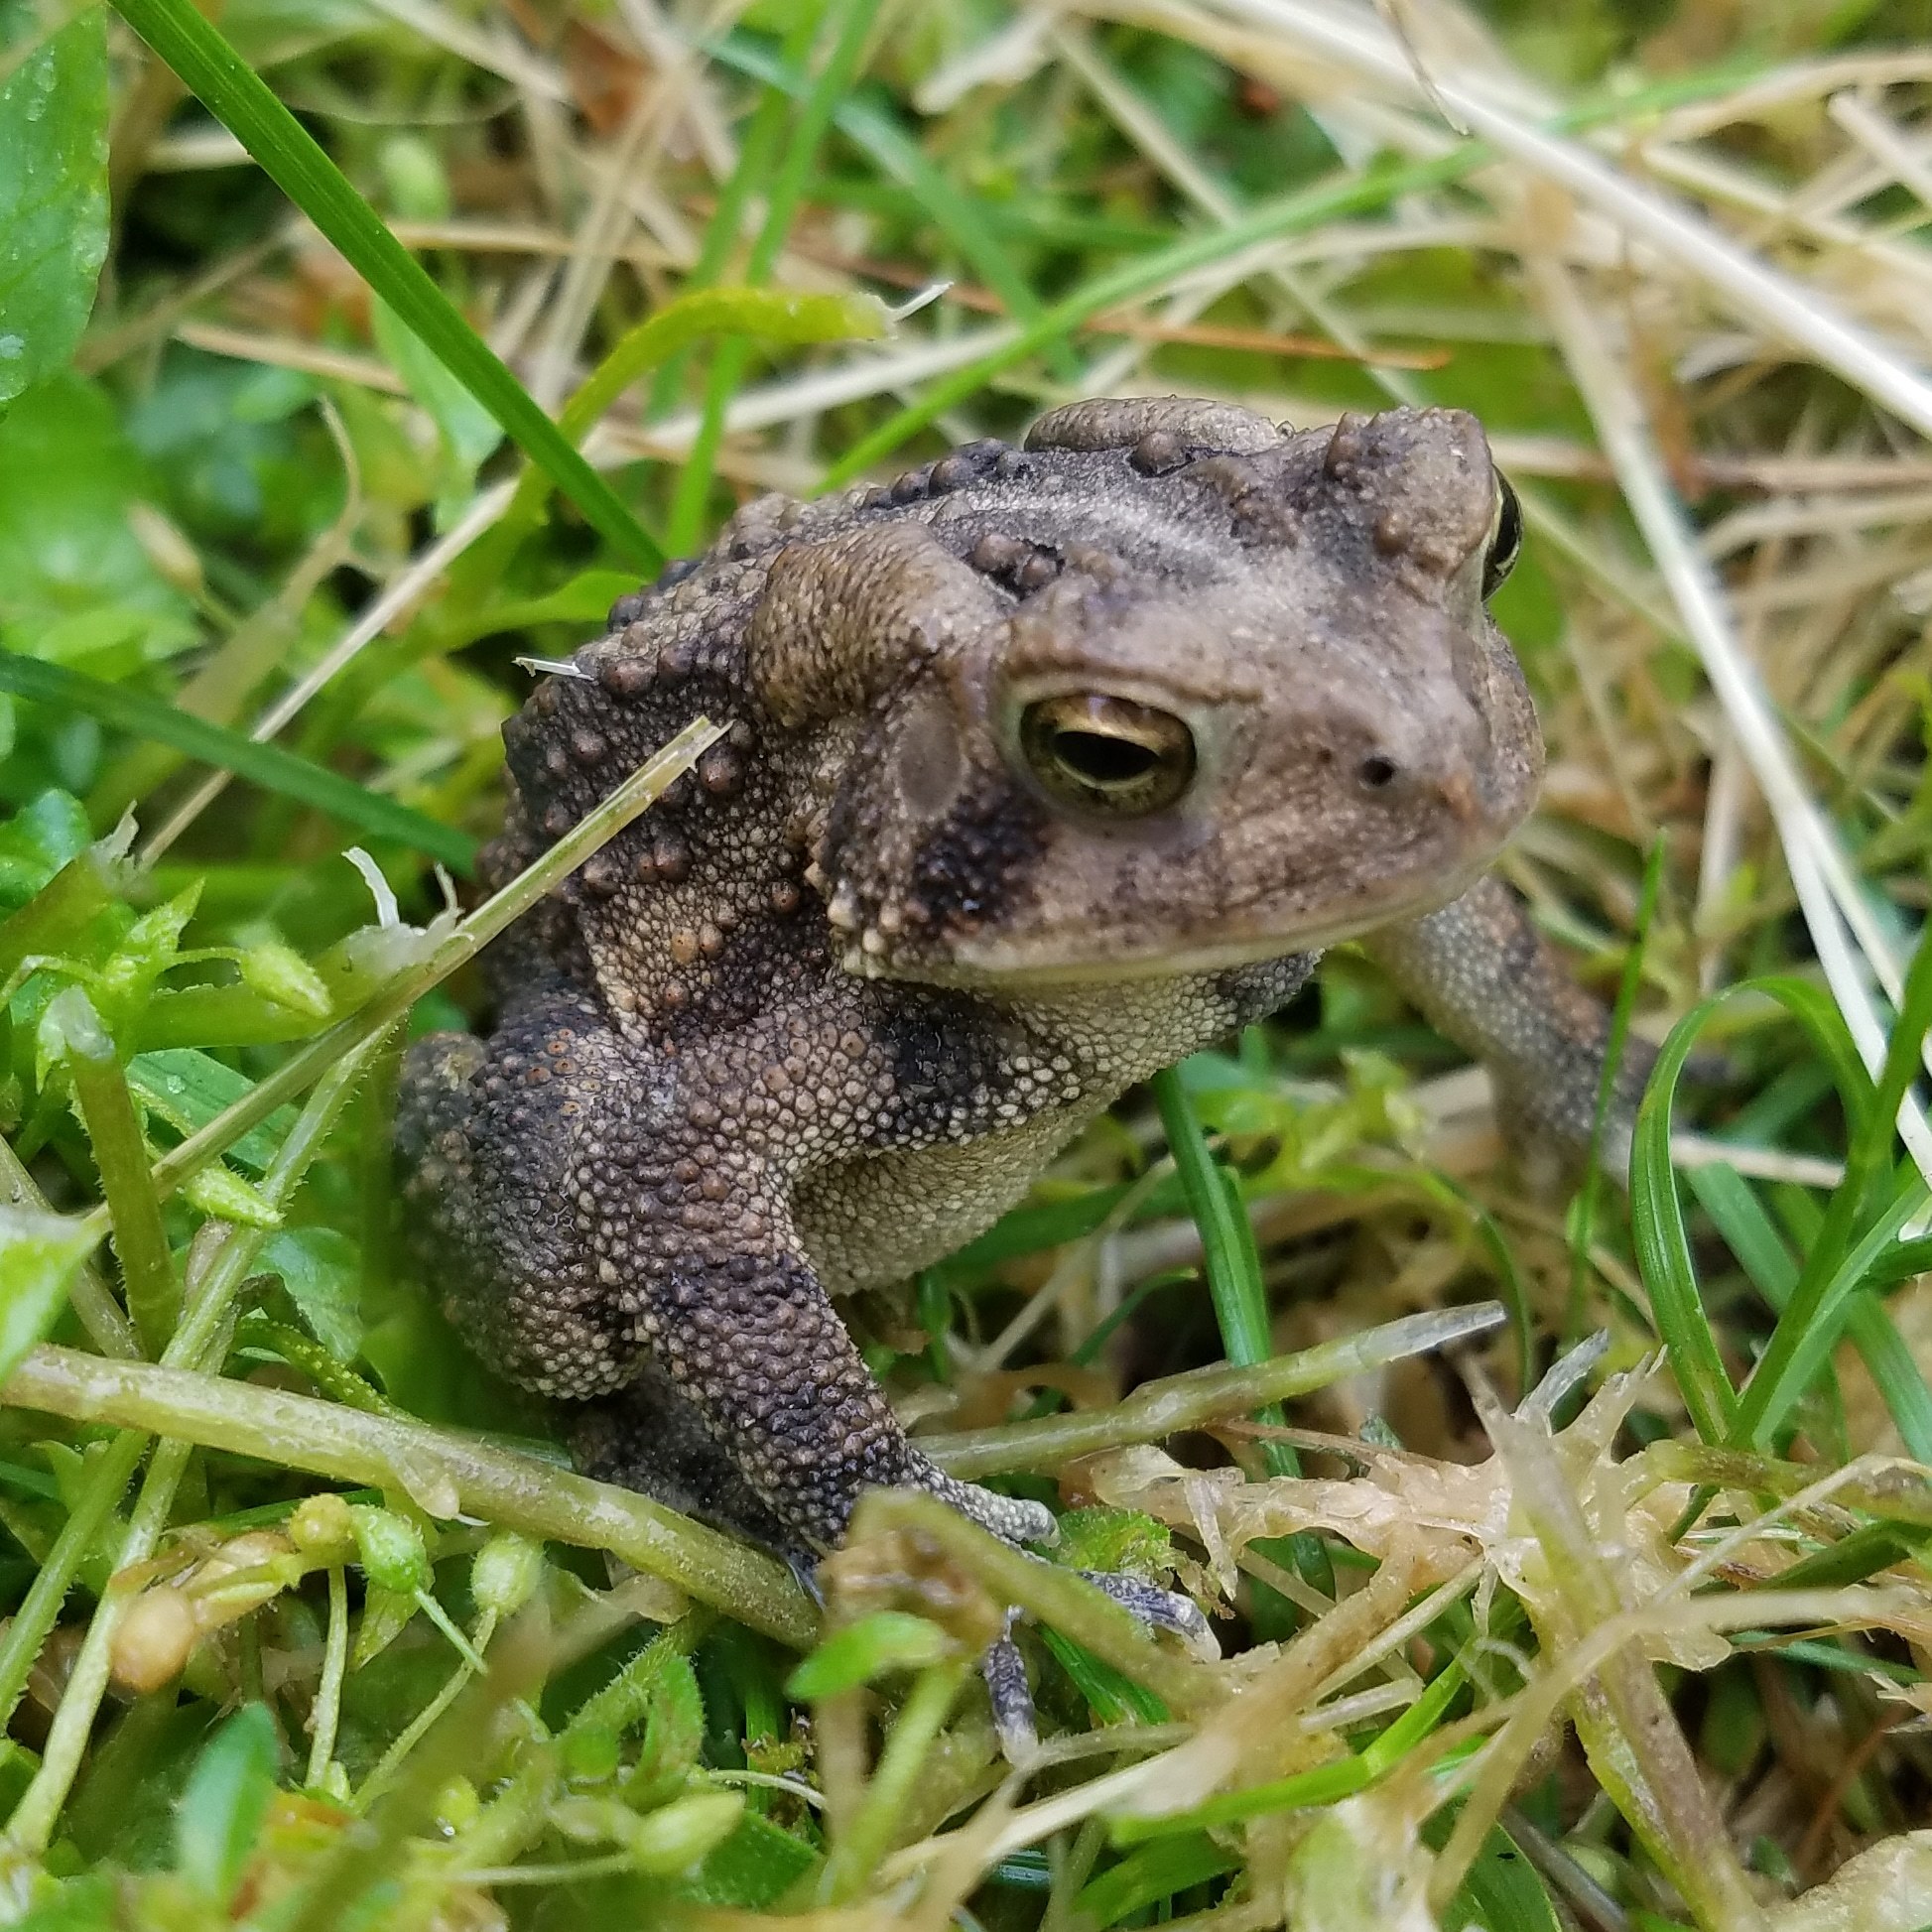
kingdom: Animalia
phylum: Chordata
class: Amphibia
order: Anura
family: Bufonidae
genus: Anaxyrus
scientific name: Anaxyrus americanus
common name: American toad
